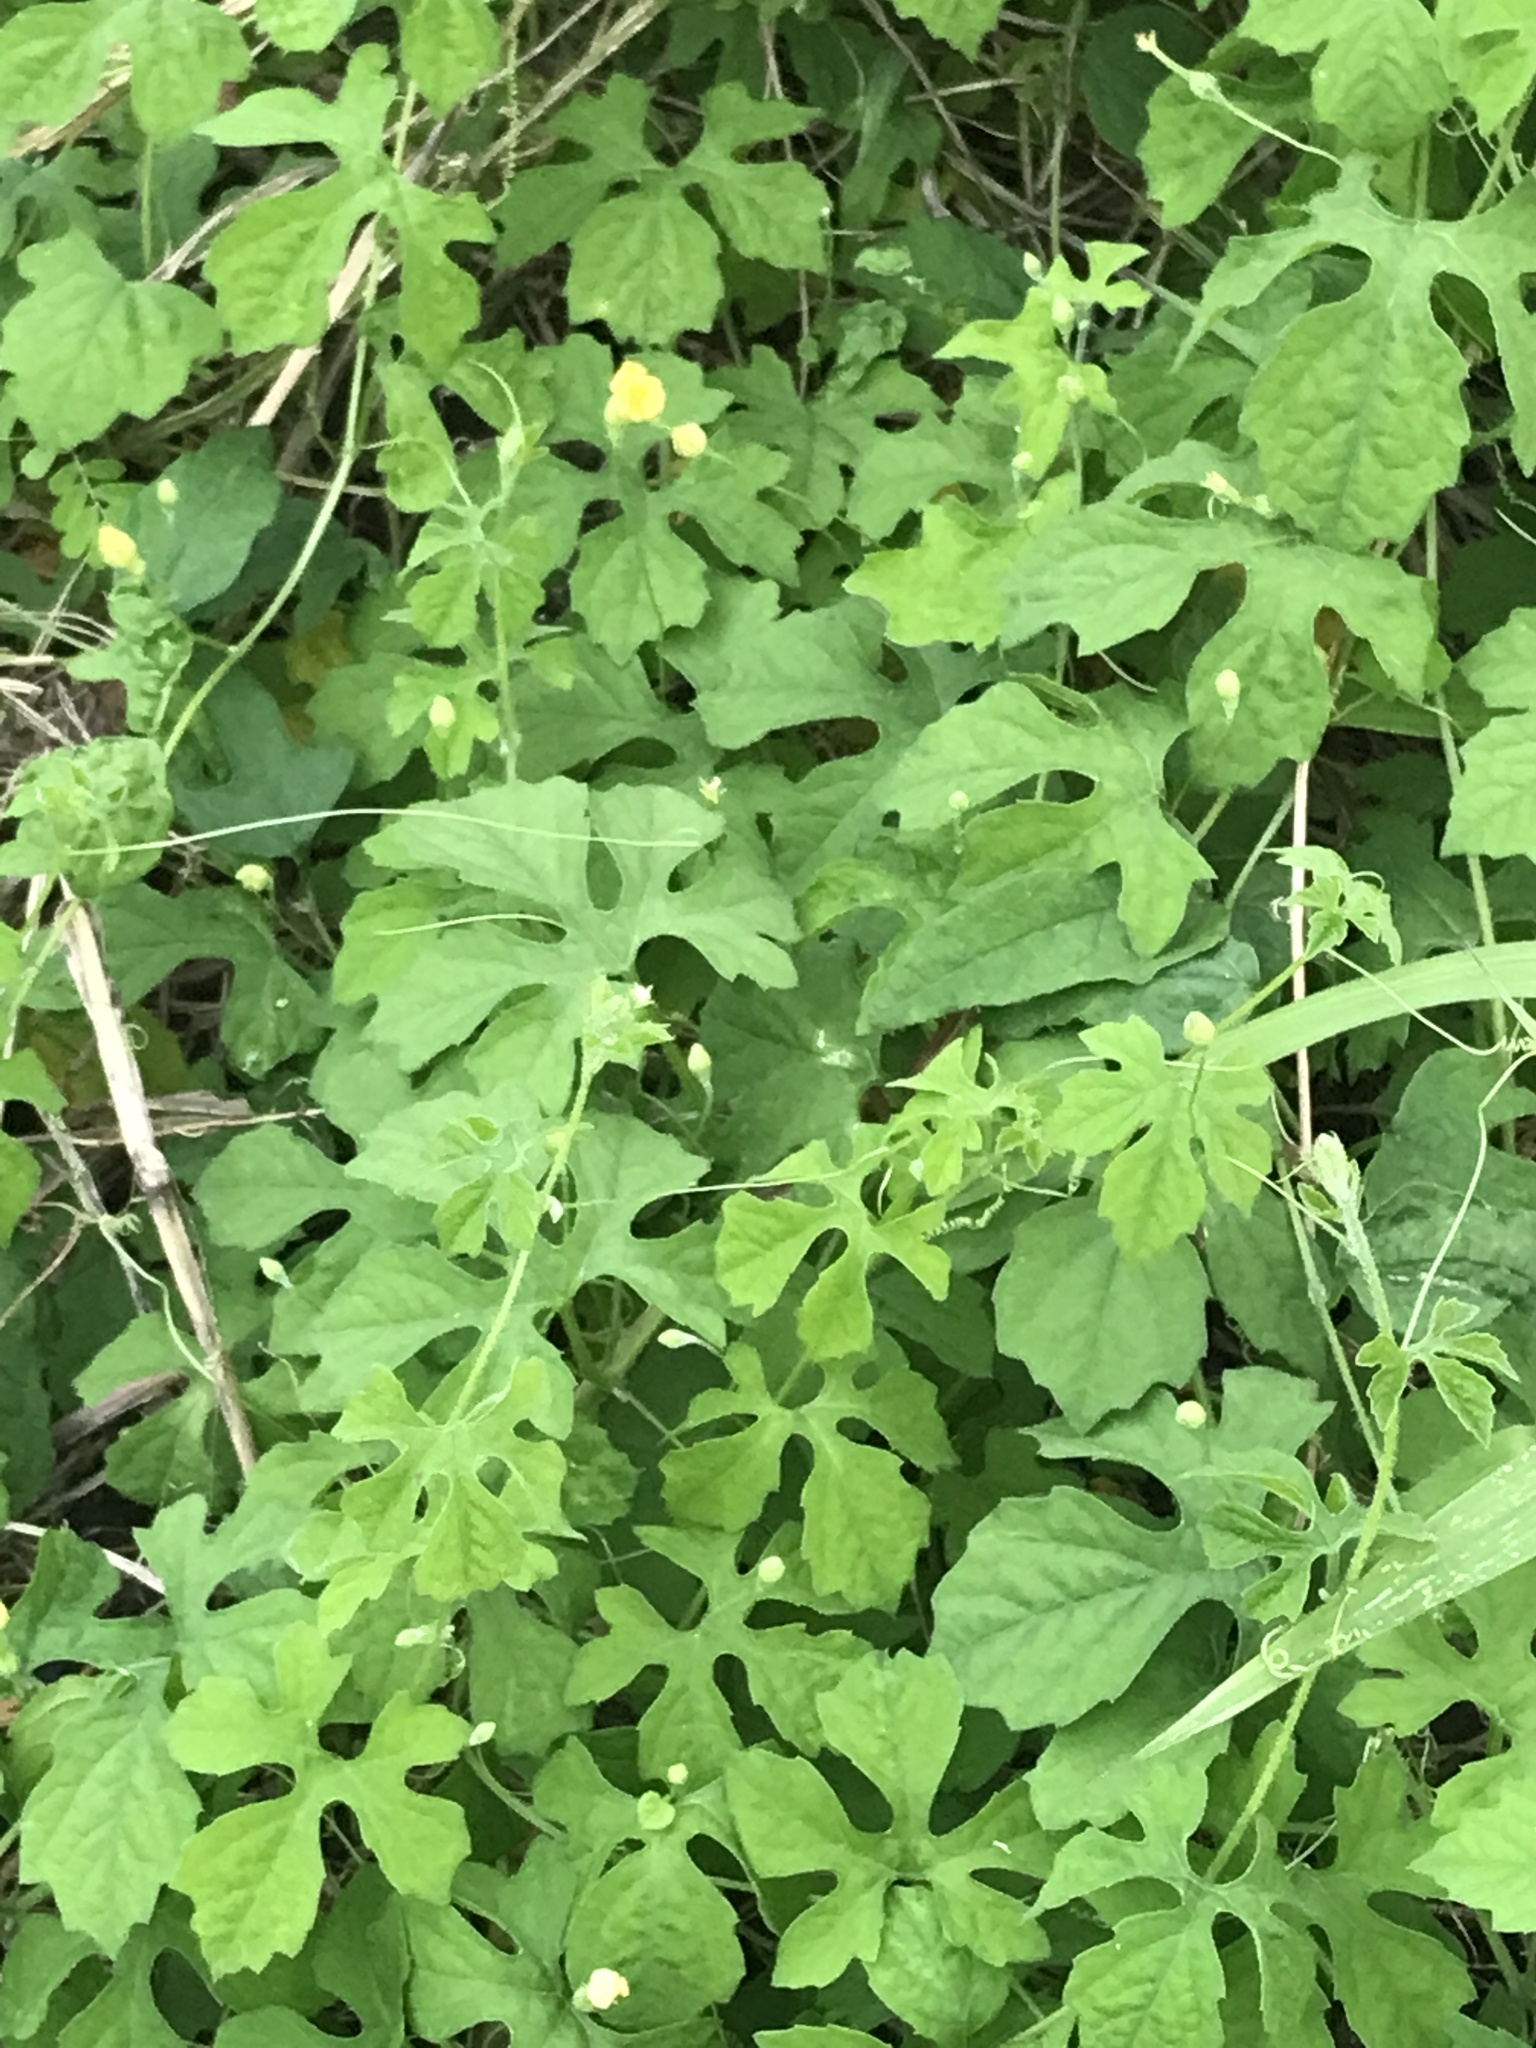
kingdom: Plantae
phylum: Tracheophyta
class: Magnoliopsida
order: Cucurbitales
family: Cucurbitaceae
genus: Momordica
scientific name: Momordica charantia
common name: Balsampear
